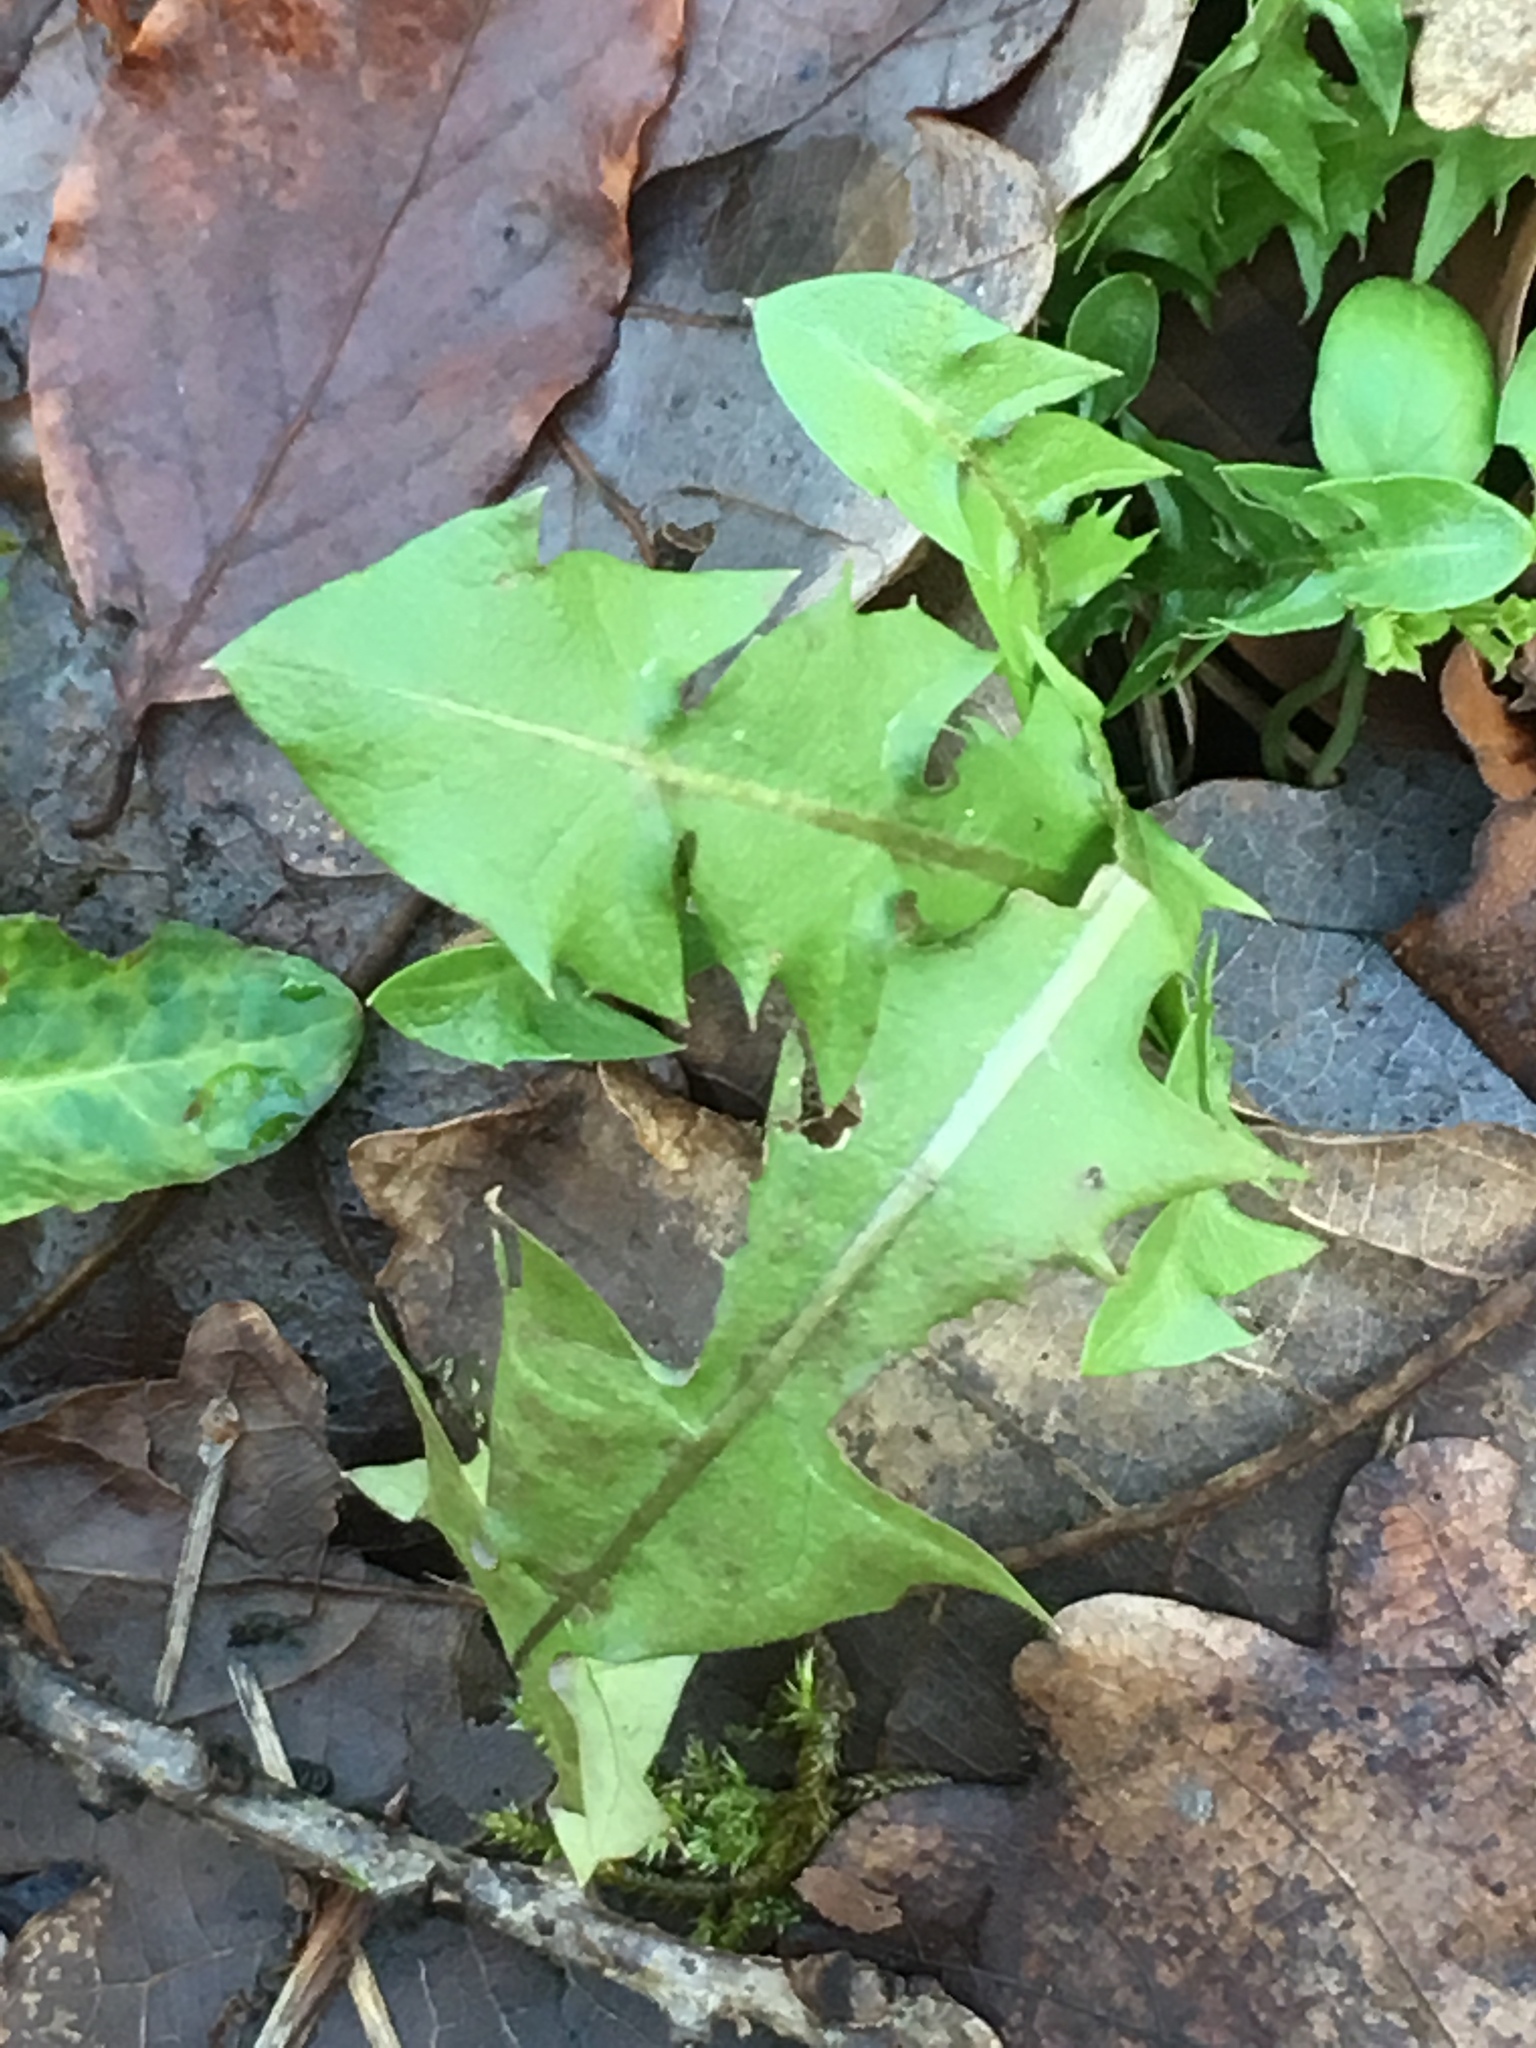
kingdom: Plantae
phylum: Tracheophyta
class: Magnoliopsida
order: Asterales
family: Asteraceae
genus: Taraxacum
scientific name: Taraxacum officinale
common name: Common dandelion
